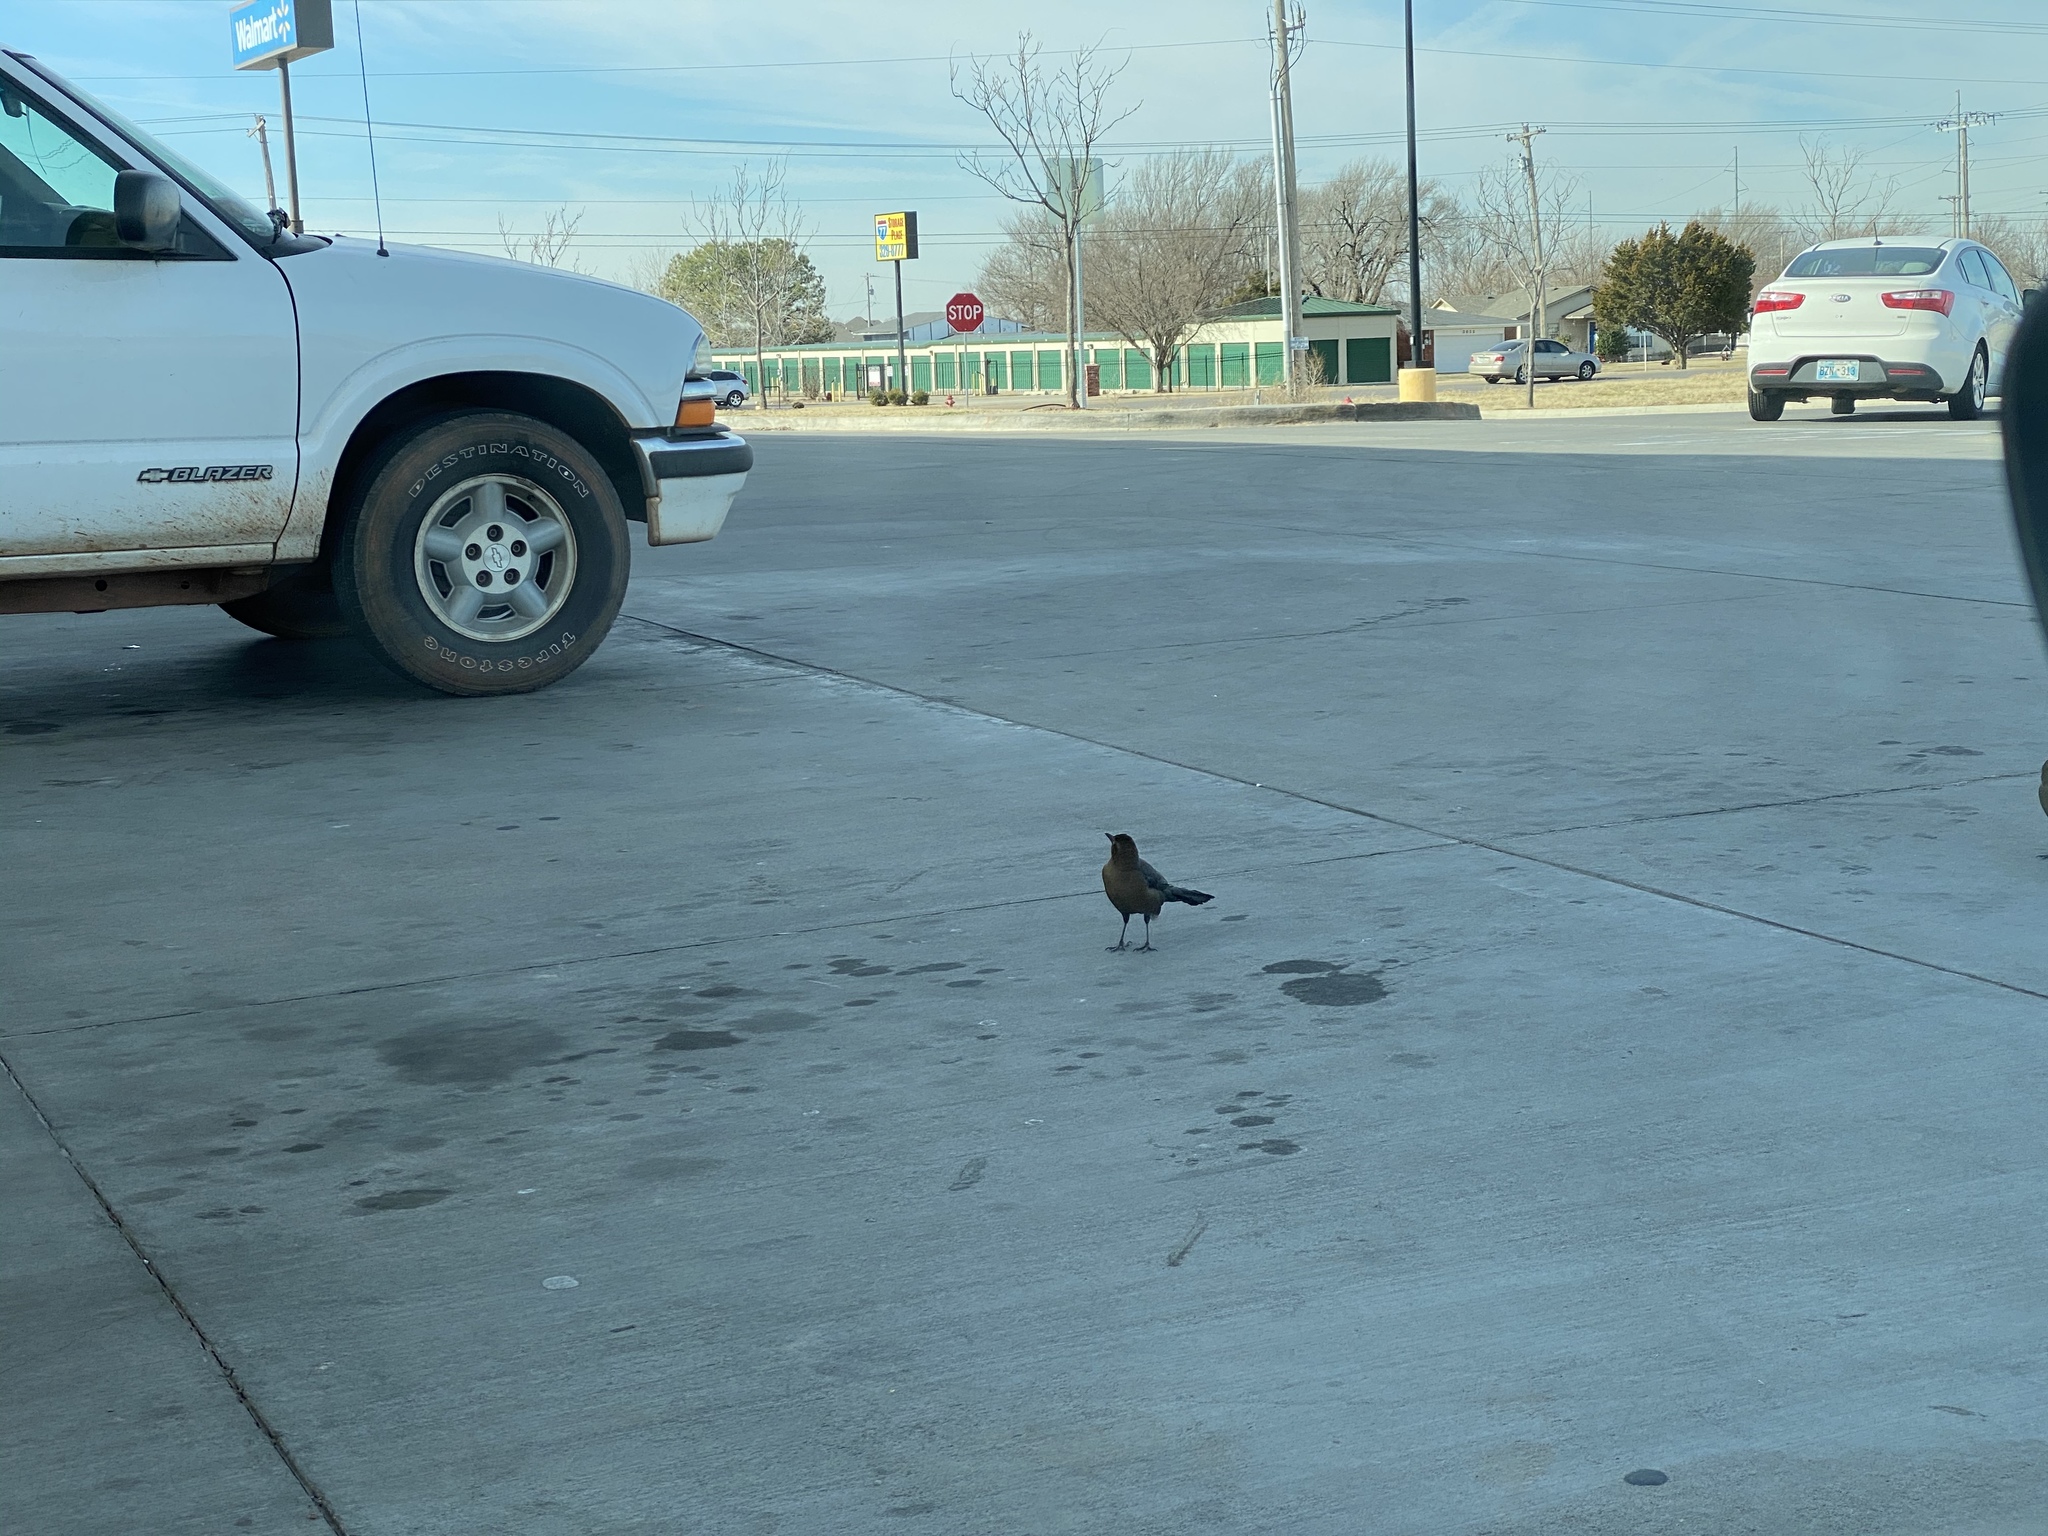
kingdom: Animalia
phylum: Chordata
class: Aves
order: Passeriformes
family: Icteridae
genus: Quiscalus
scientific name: Quiscalus mexicanus
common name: Great-tailed grackle
